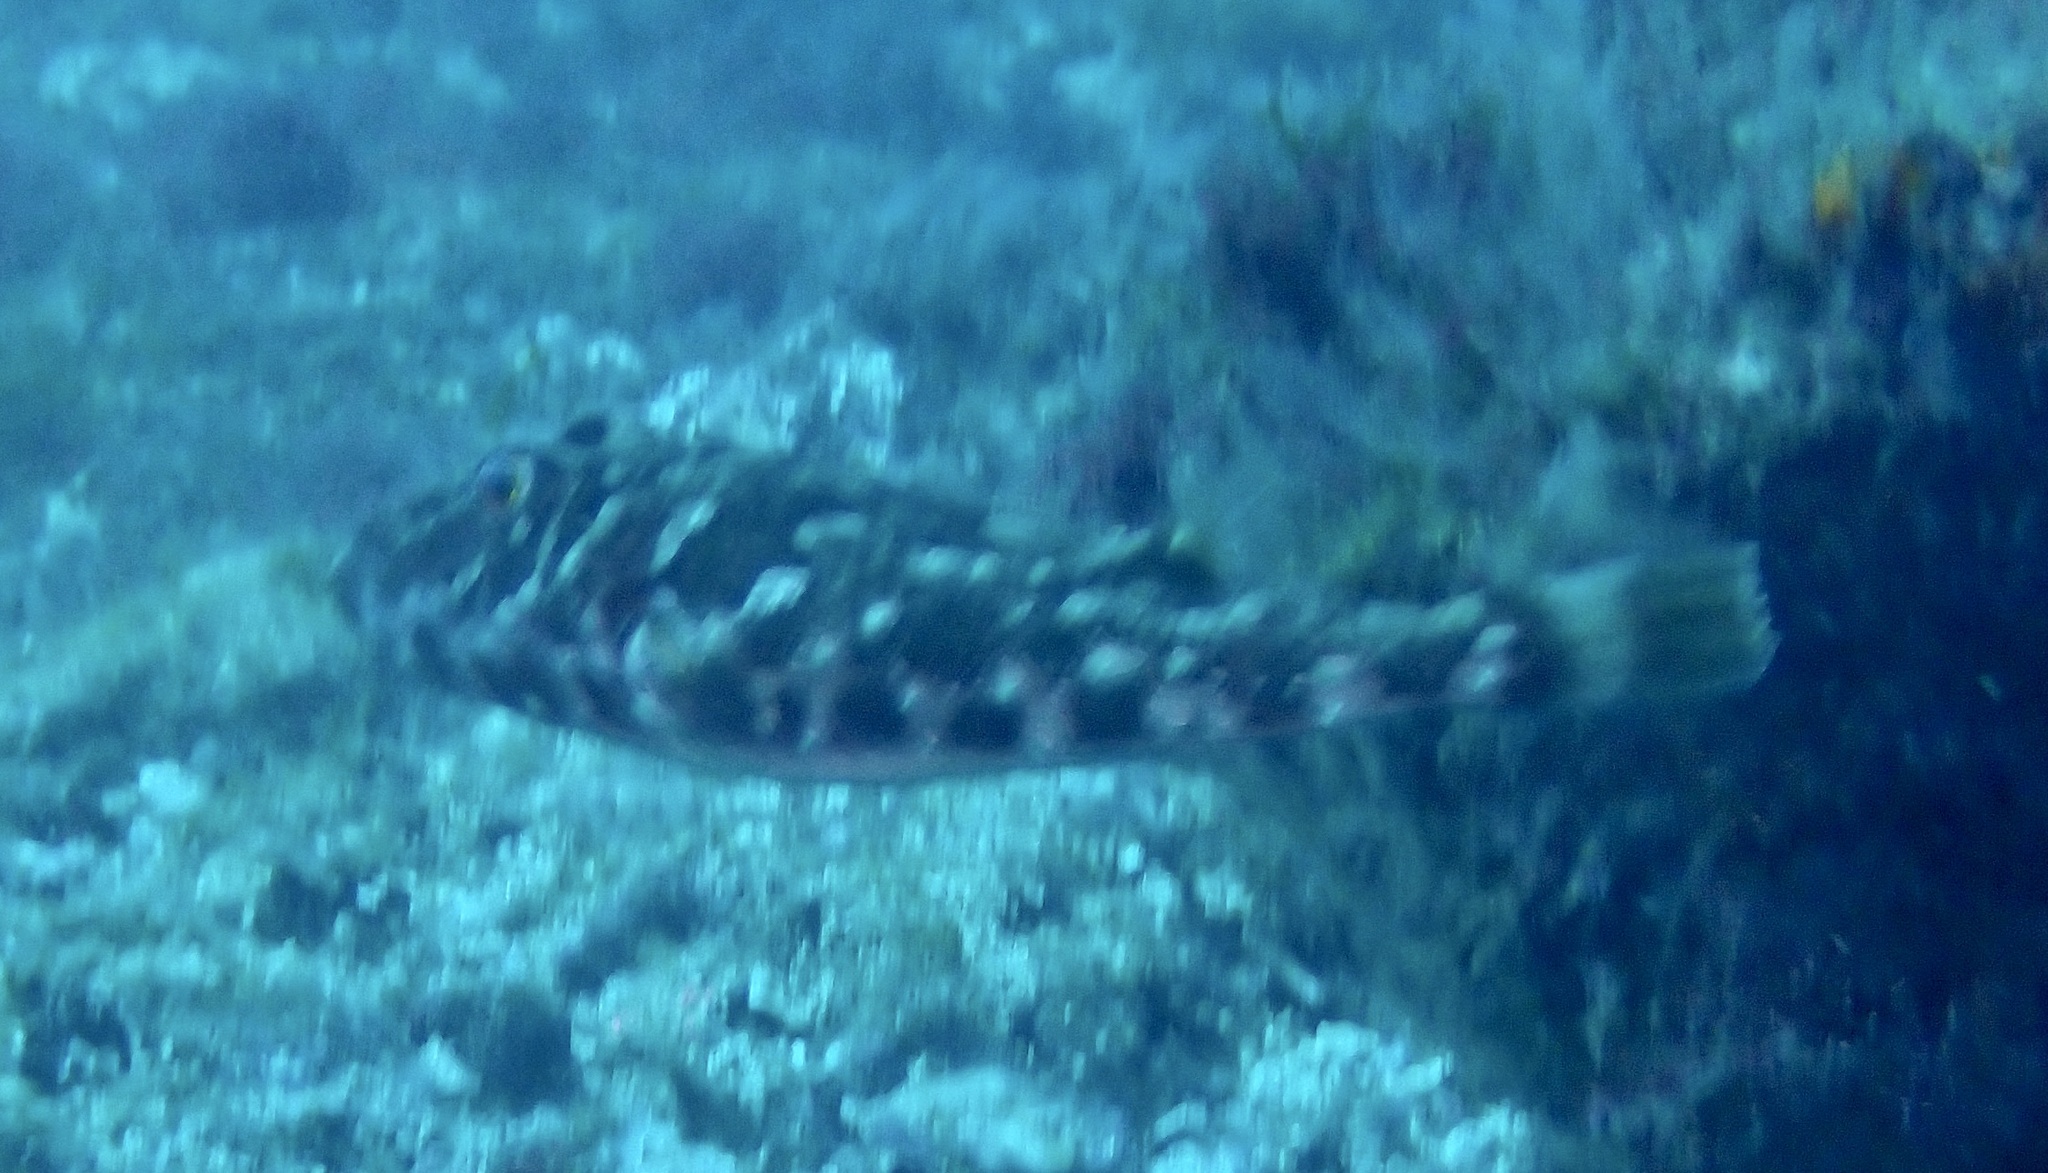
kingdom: Animalia
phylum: Chordata
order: Tetraodontiformes
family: Tetraodontidae
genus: Sphoeroides
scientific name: Sphoeroides marmoratus
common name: Guinean puffer
